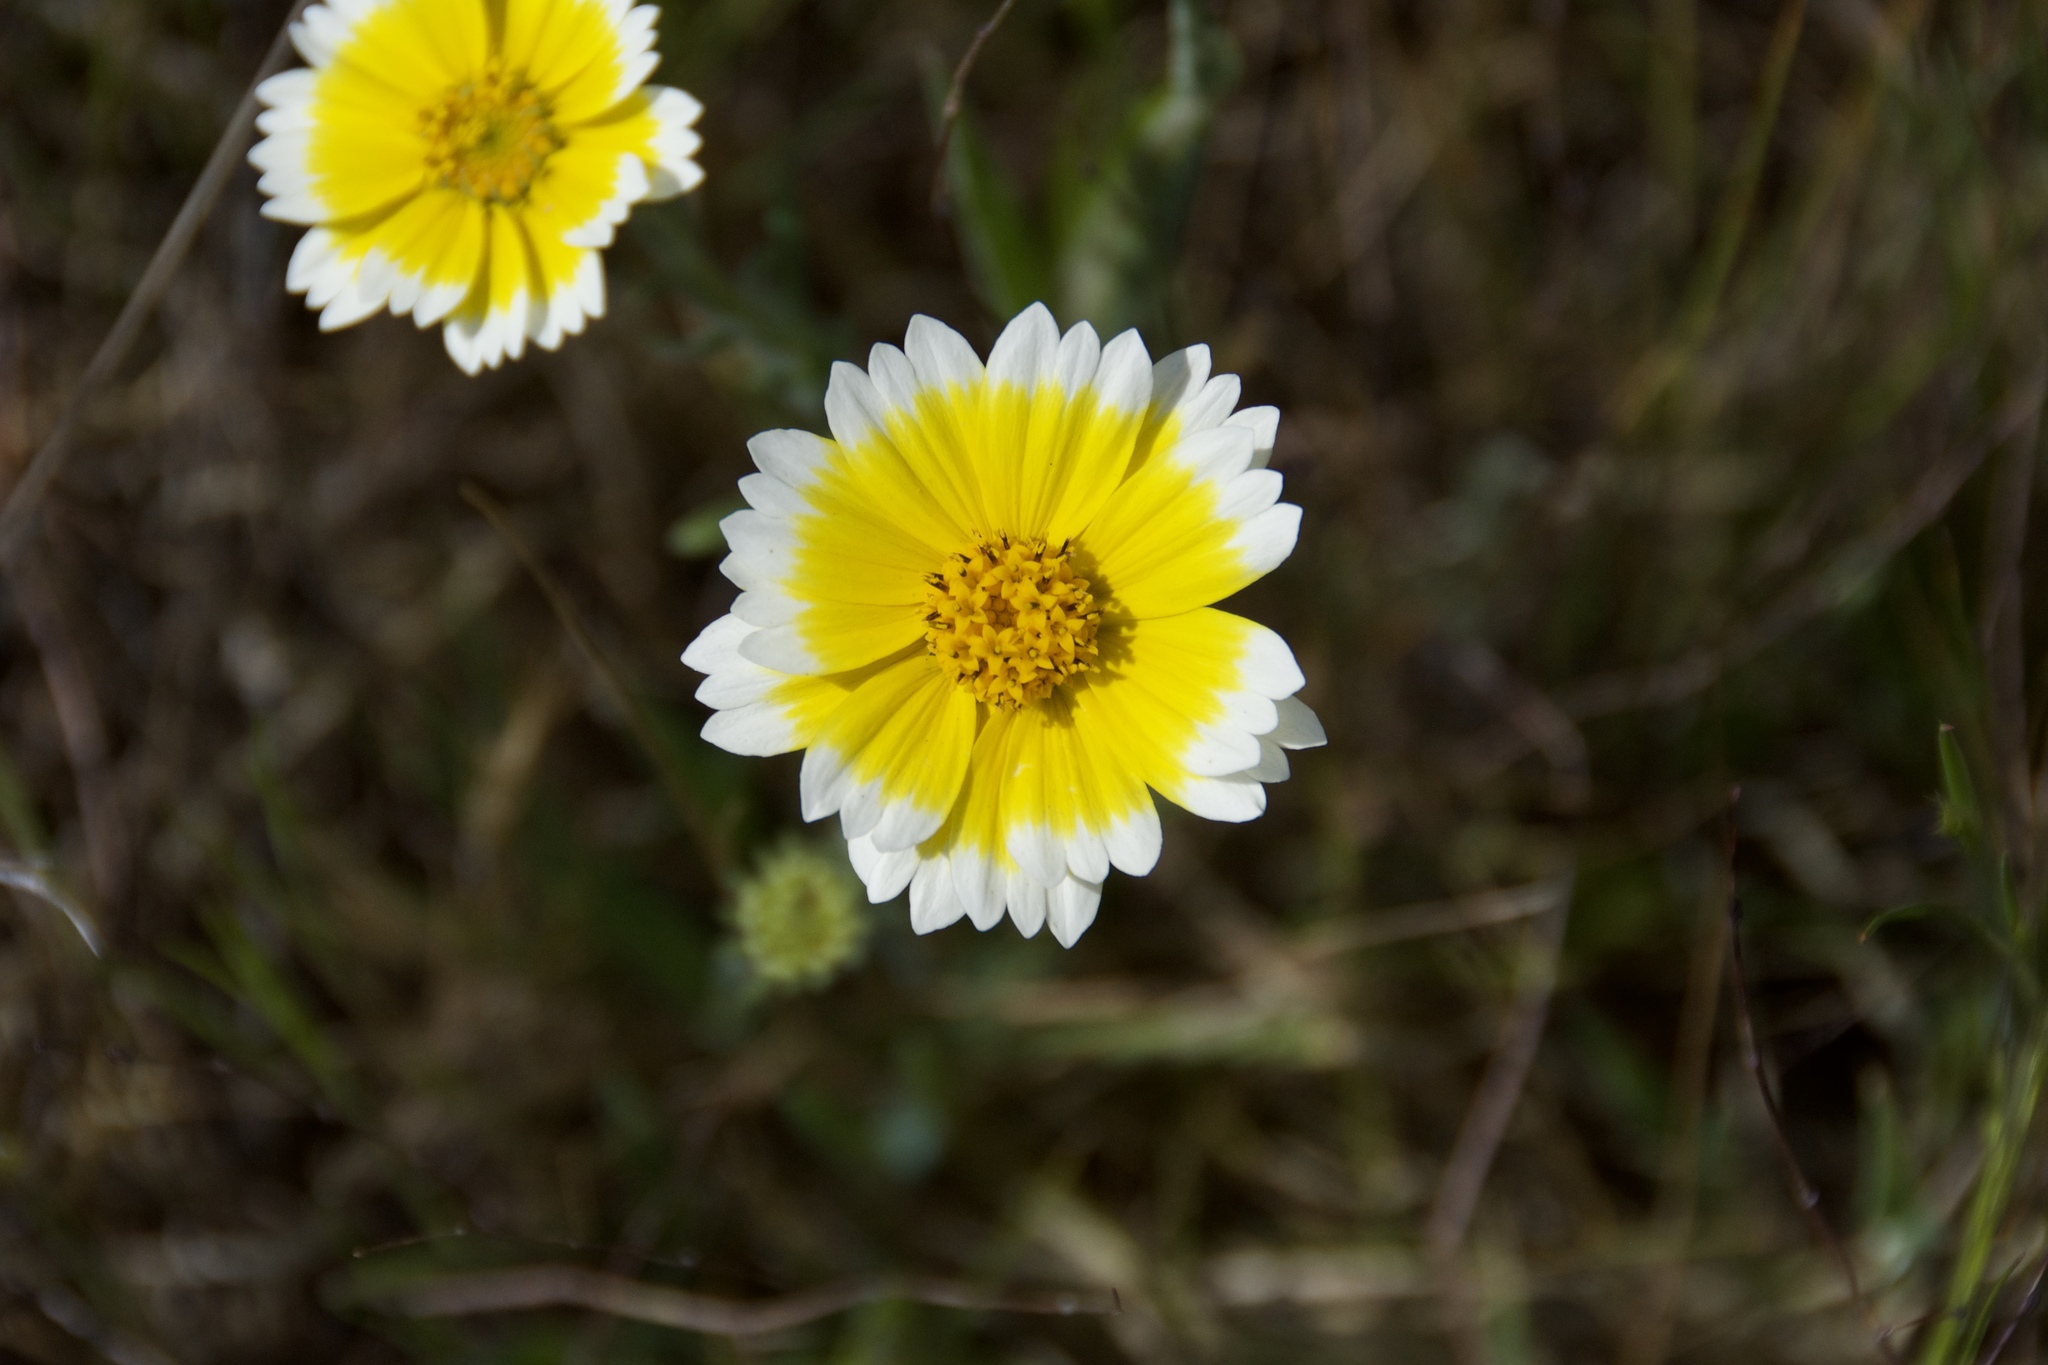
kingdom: Plantae
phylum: Tracheophyta
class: Magnoliopsida
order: Asterales
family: Asteraceae
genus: Layia
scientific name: Layia platyglossa
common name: Tidy-tips
